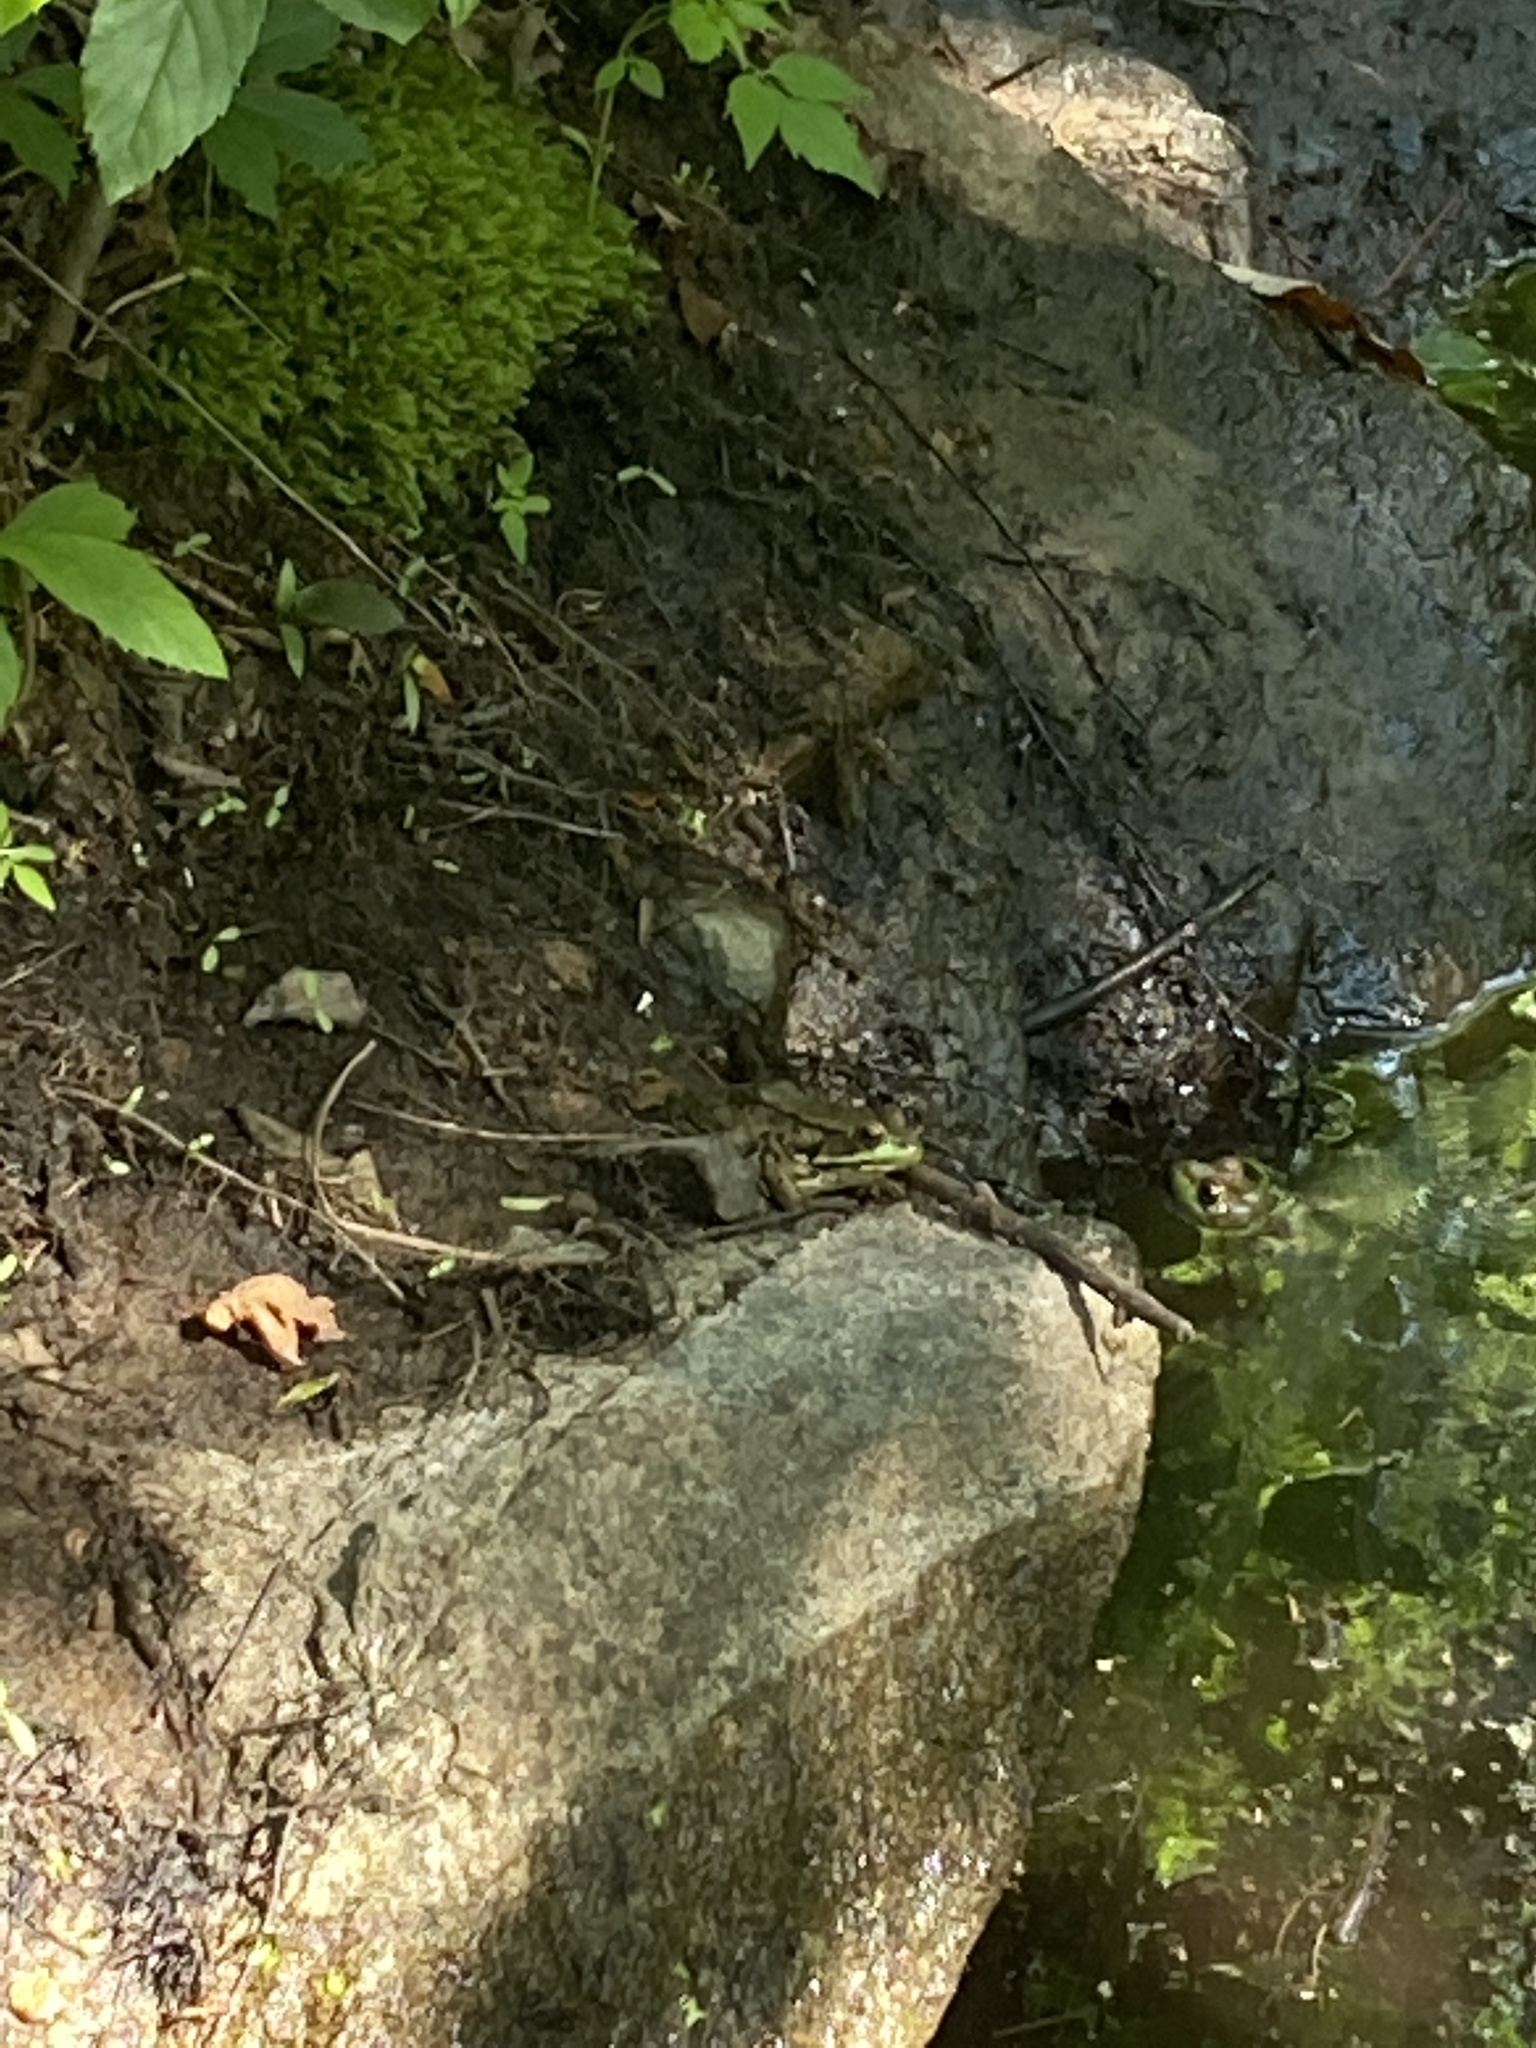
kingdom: Animalia
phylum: Chordata
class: Amphibia
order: Anura
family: Ranidae
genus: Lithobates
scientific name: Lithobates clamitans
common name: Green frog
